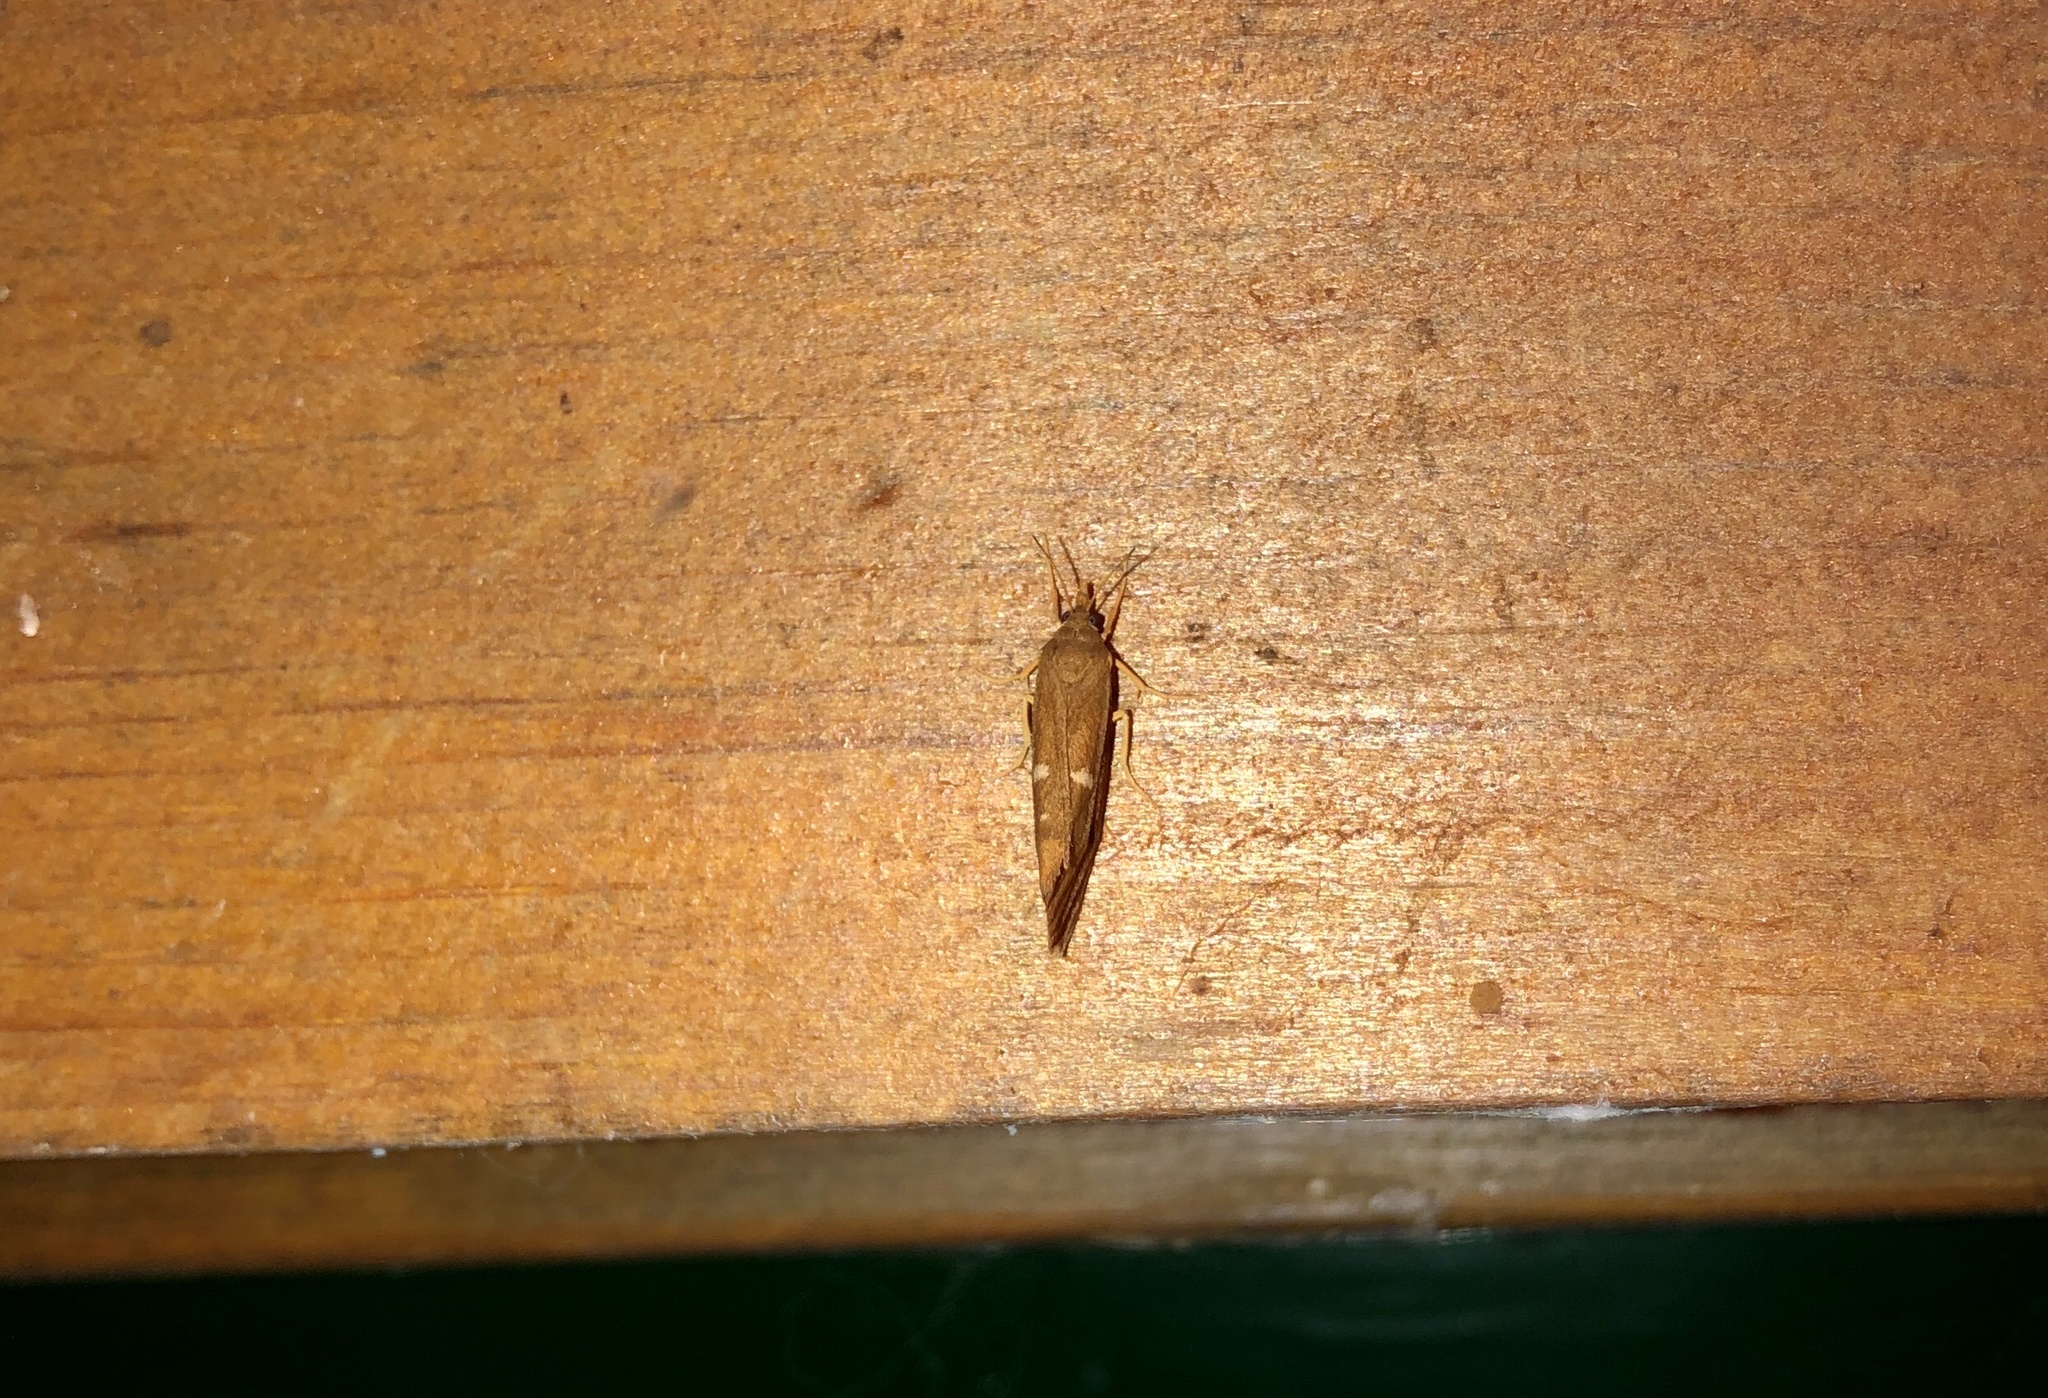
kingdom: Animalia
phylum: Arthropoda
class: Insecta
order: Lepidoptera
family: Erebidae
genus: Virbia
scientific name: Virbia ferruginosa
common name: Rusty virbia moth
